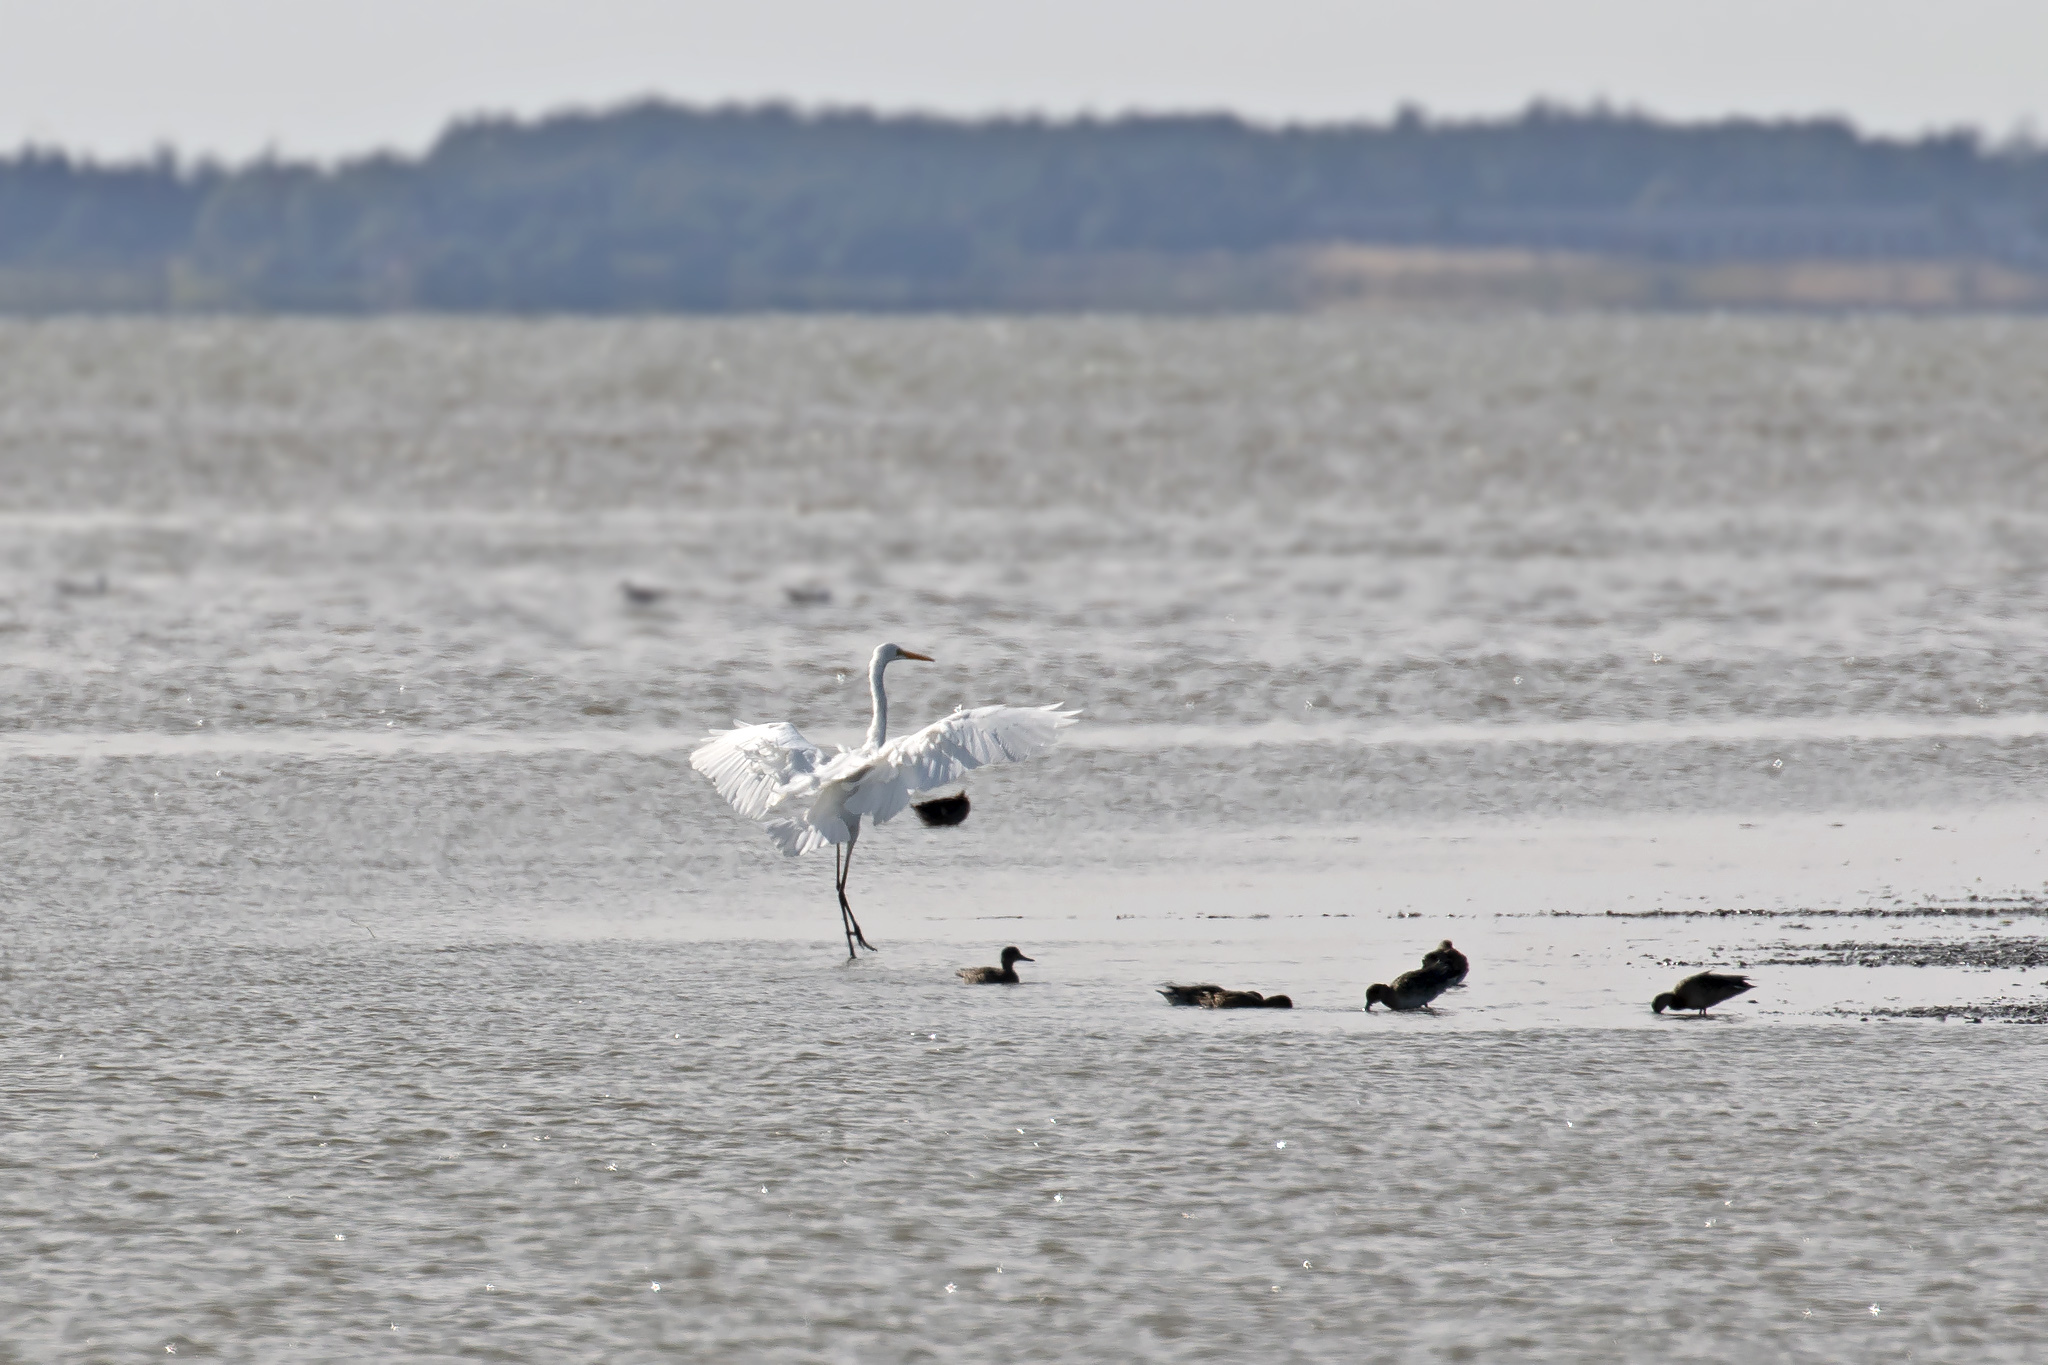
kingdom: Animalia
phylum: Chordata
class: Aves
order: Pelecaniformes
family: Ardeidae
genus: Ardea
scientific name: Ardea alba
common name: Great egret
